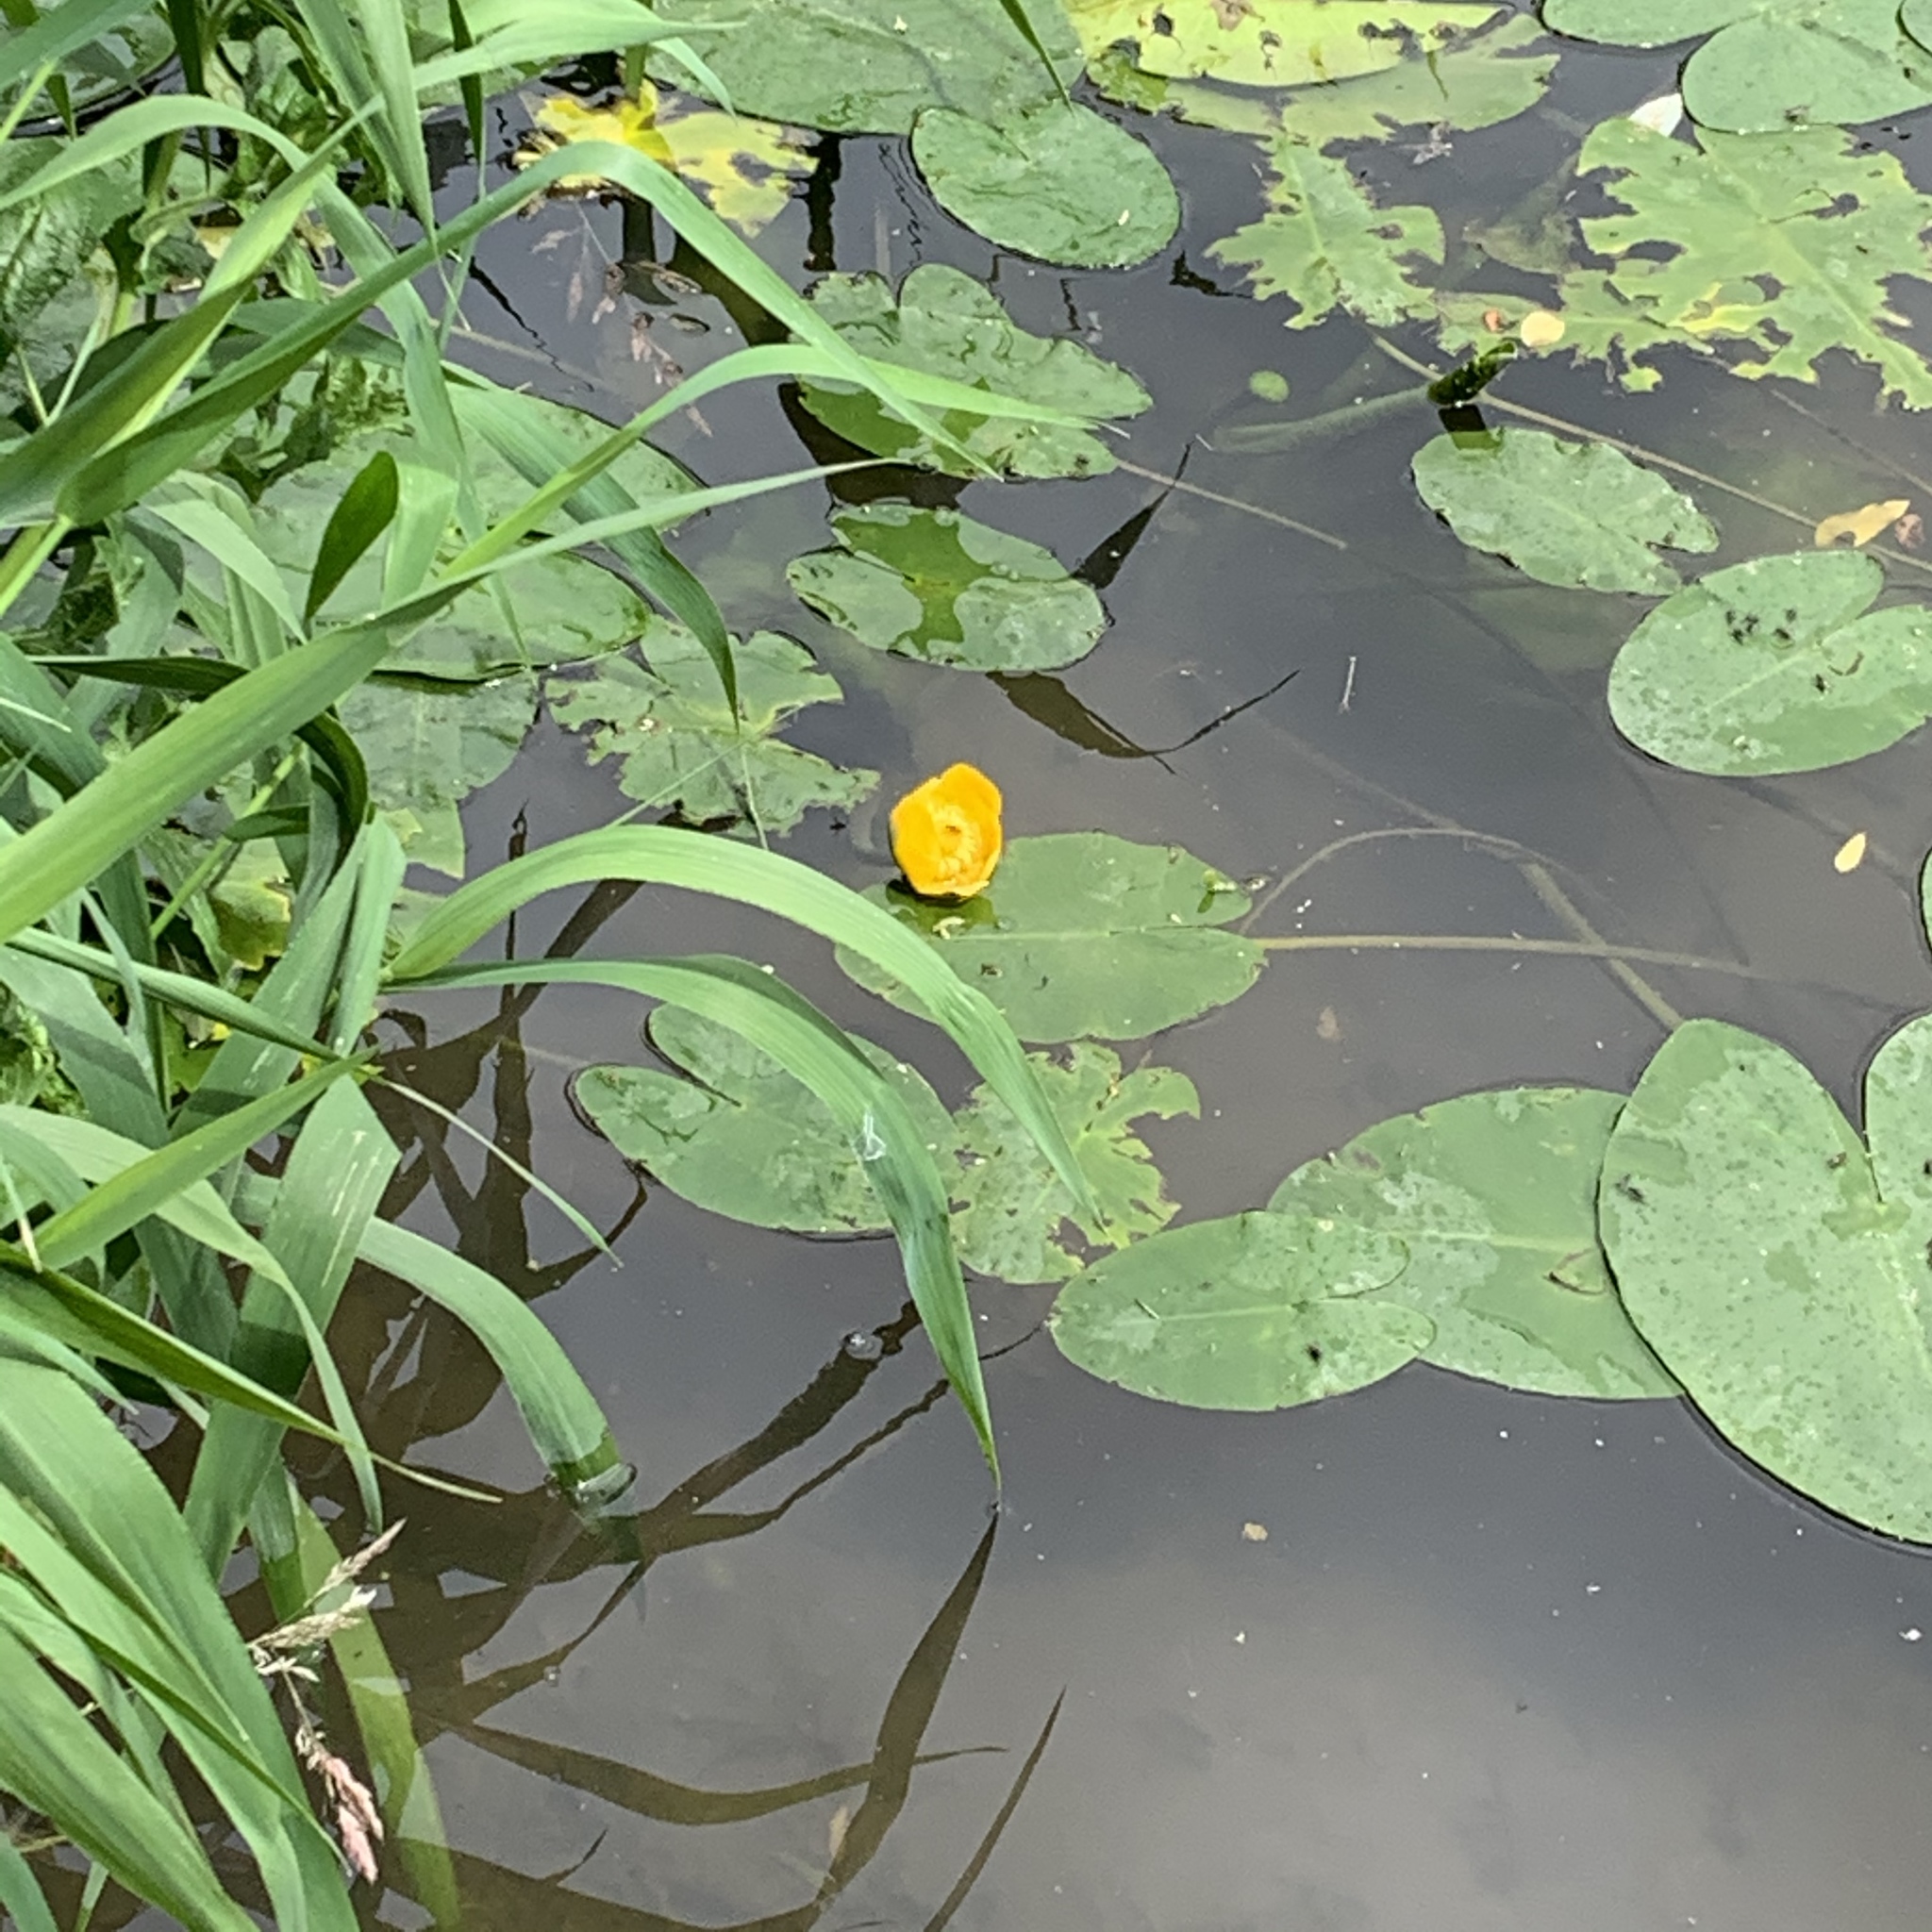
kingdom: Plantae
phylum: Tracheophyta
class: Magnoliopsida
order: Nymphaeales
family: Nymphaeaceae
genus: Nuphar
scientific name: Nuphar lutea
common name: Yellow water-lily
